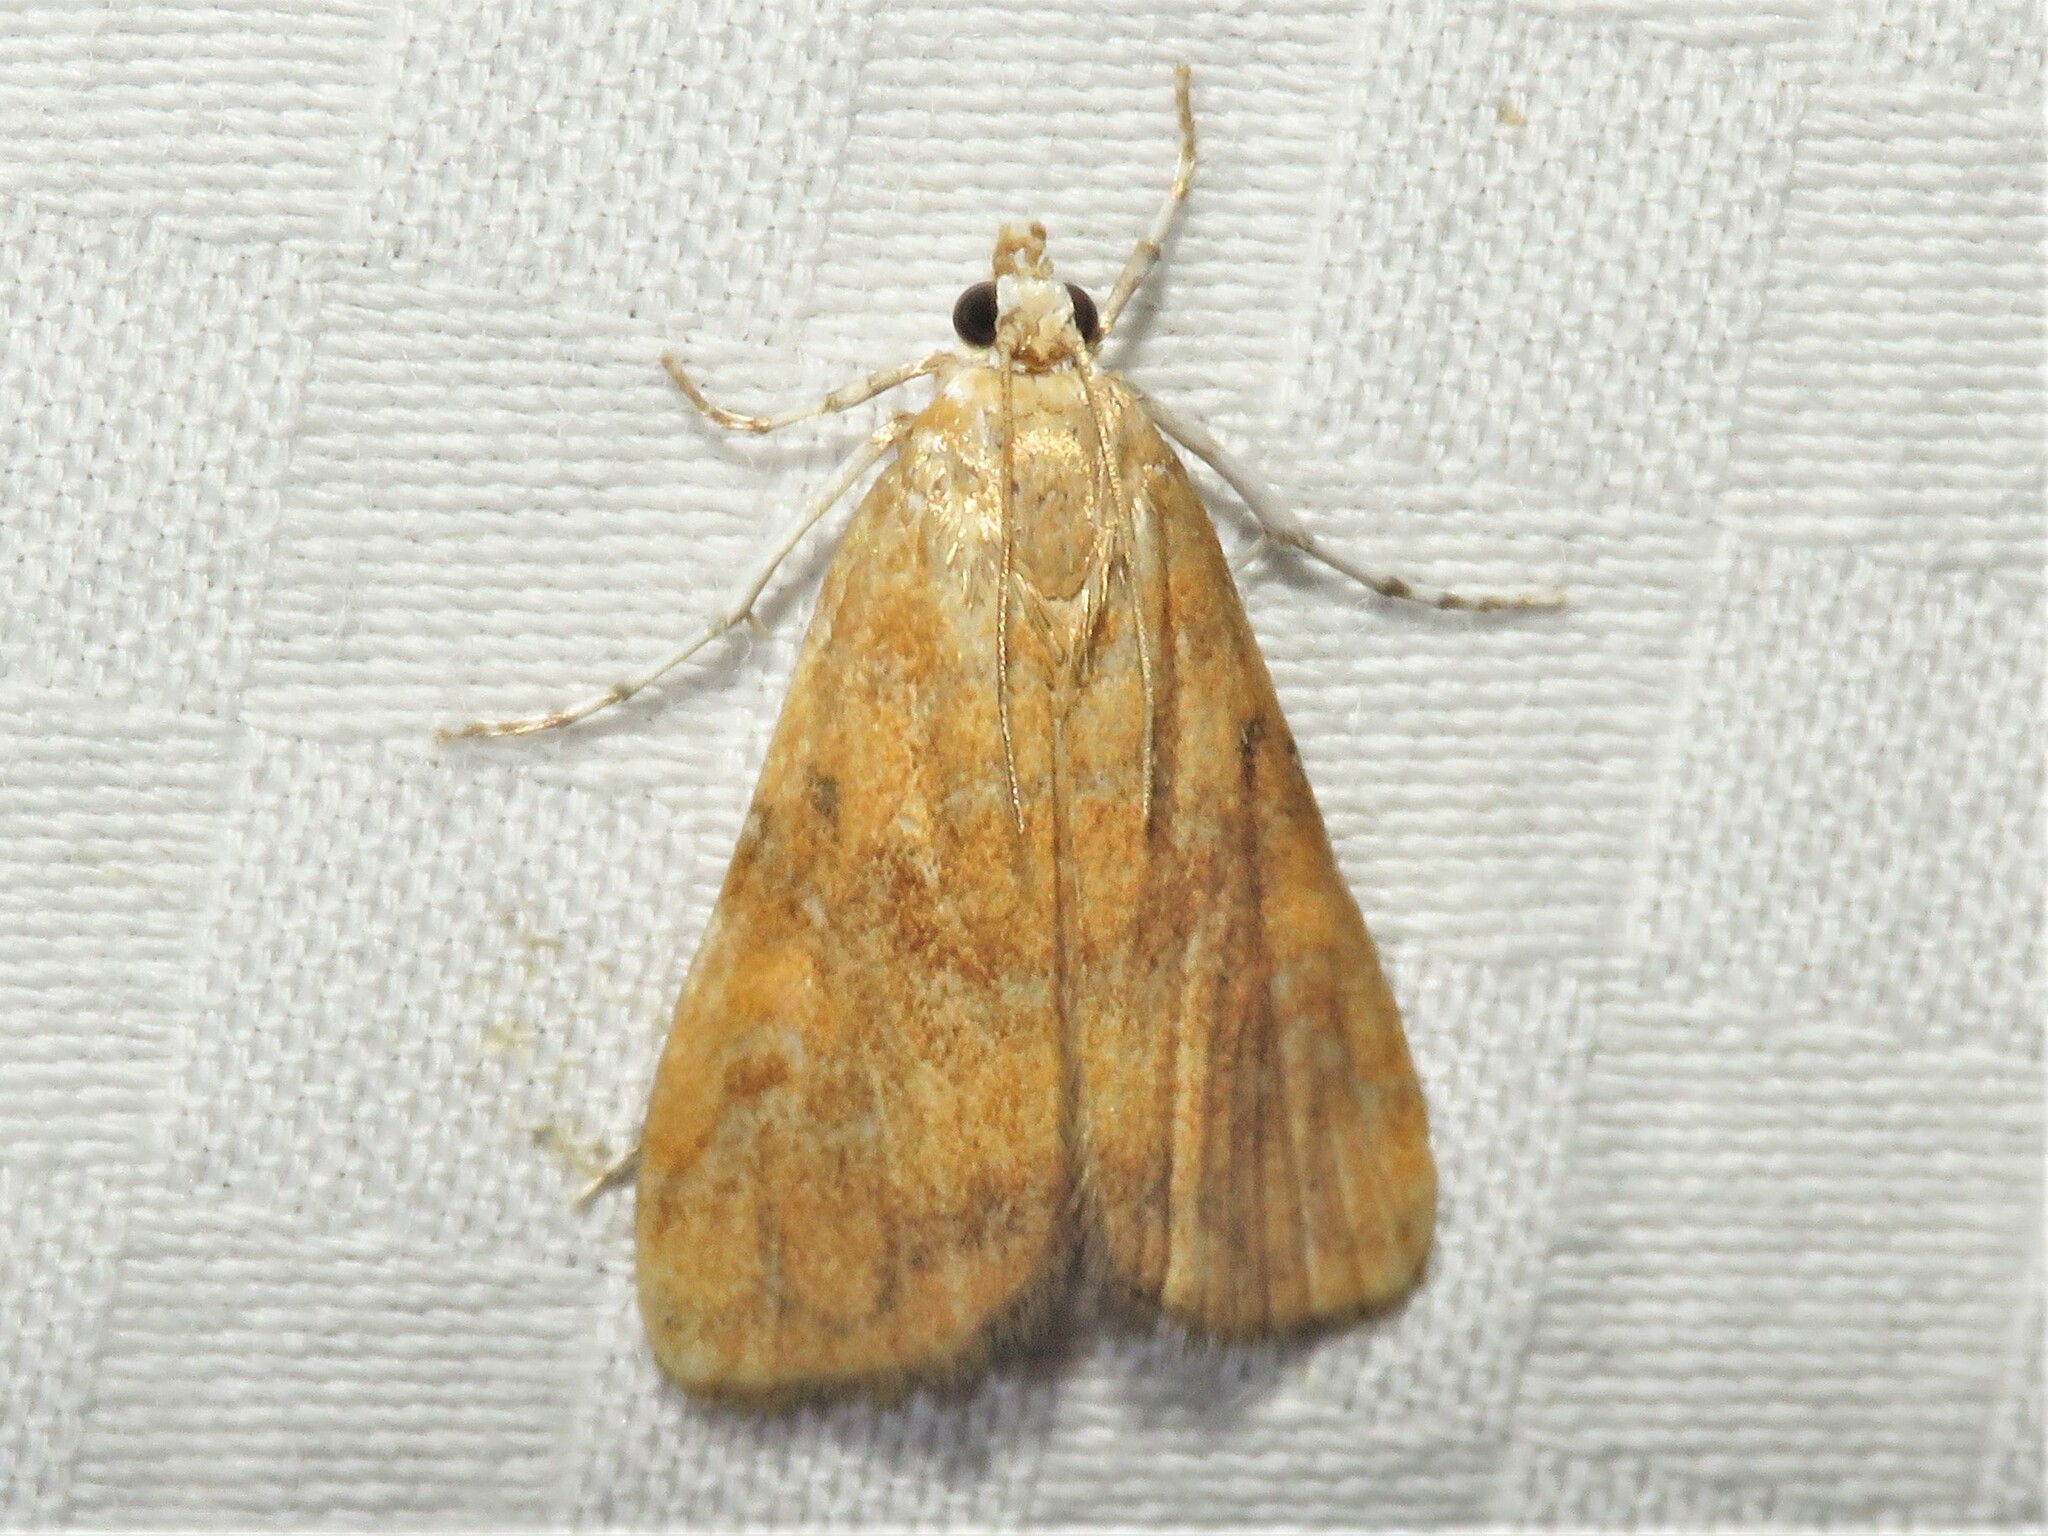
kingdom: Animalia
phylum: Arthropoda
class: Insecta
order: Lepidoptera
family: Crambidae
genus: Elophila
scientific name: Elophila gyralis
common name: Waterlily borer moth
